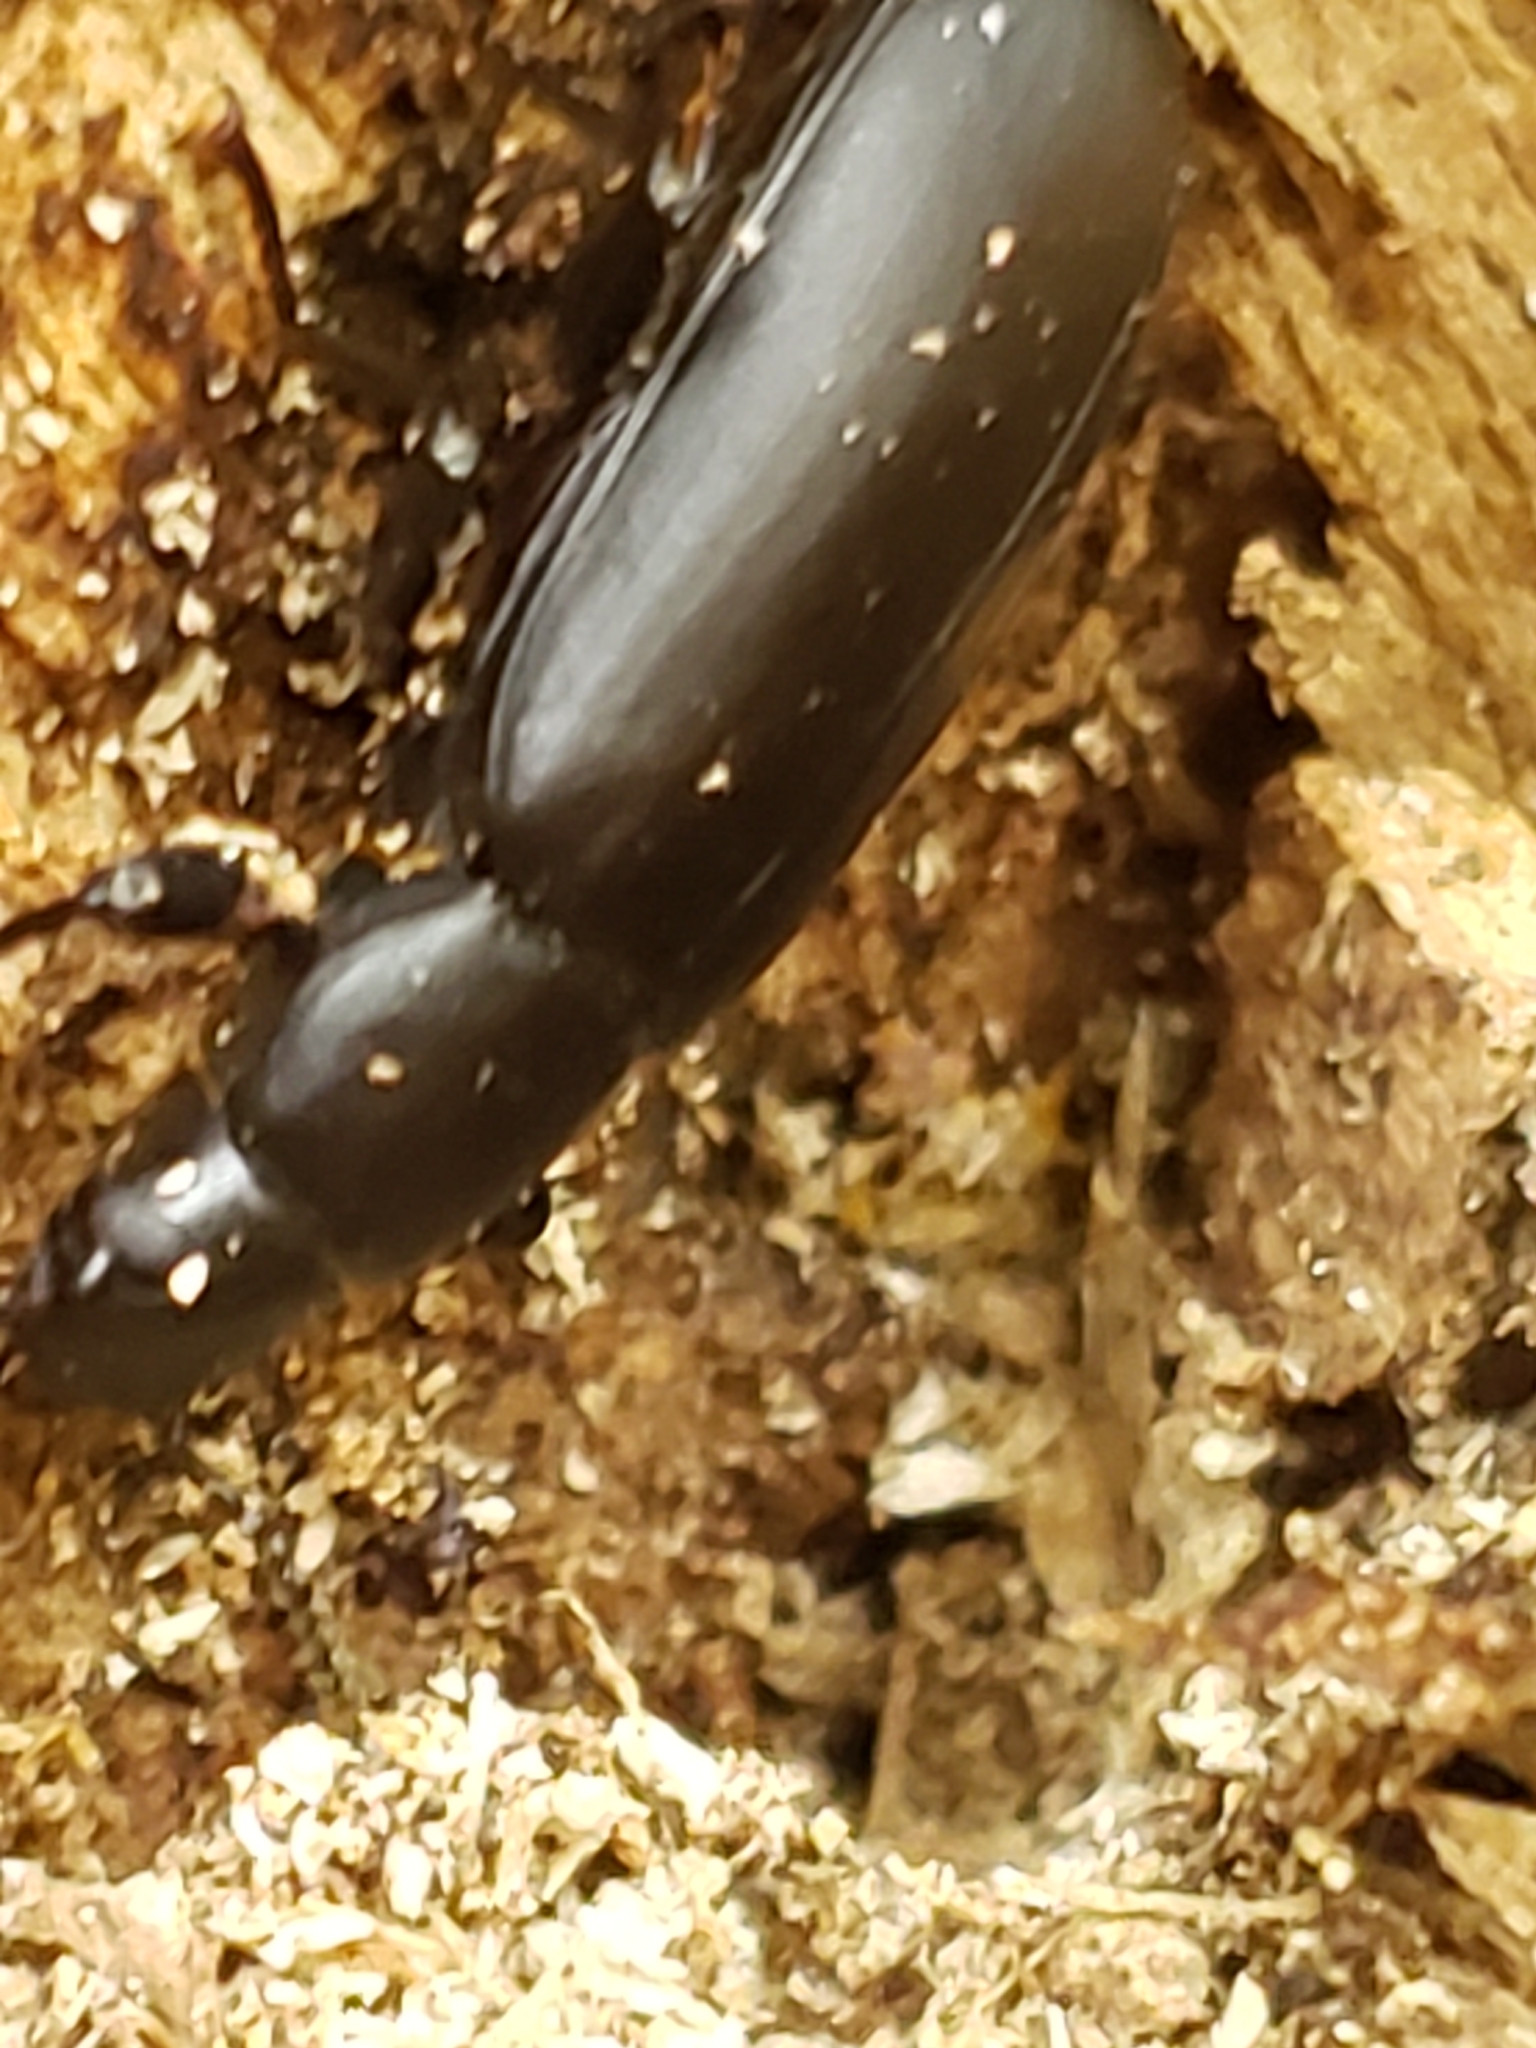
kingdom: Animalia
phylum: Arthropoda
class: Insecta
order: Coleoptera
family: Tenebrionidae
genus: Alobates
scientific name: Alobates
